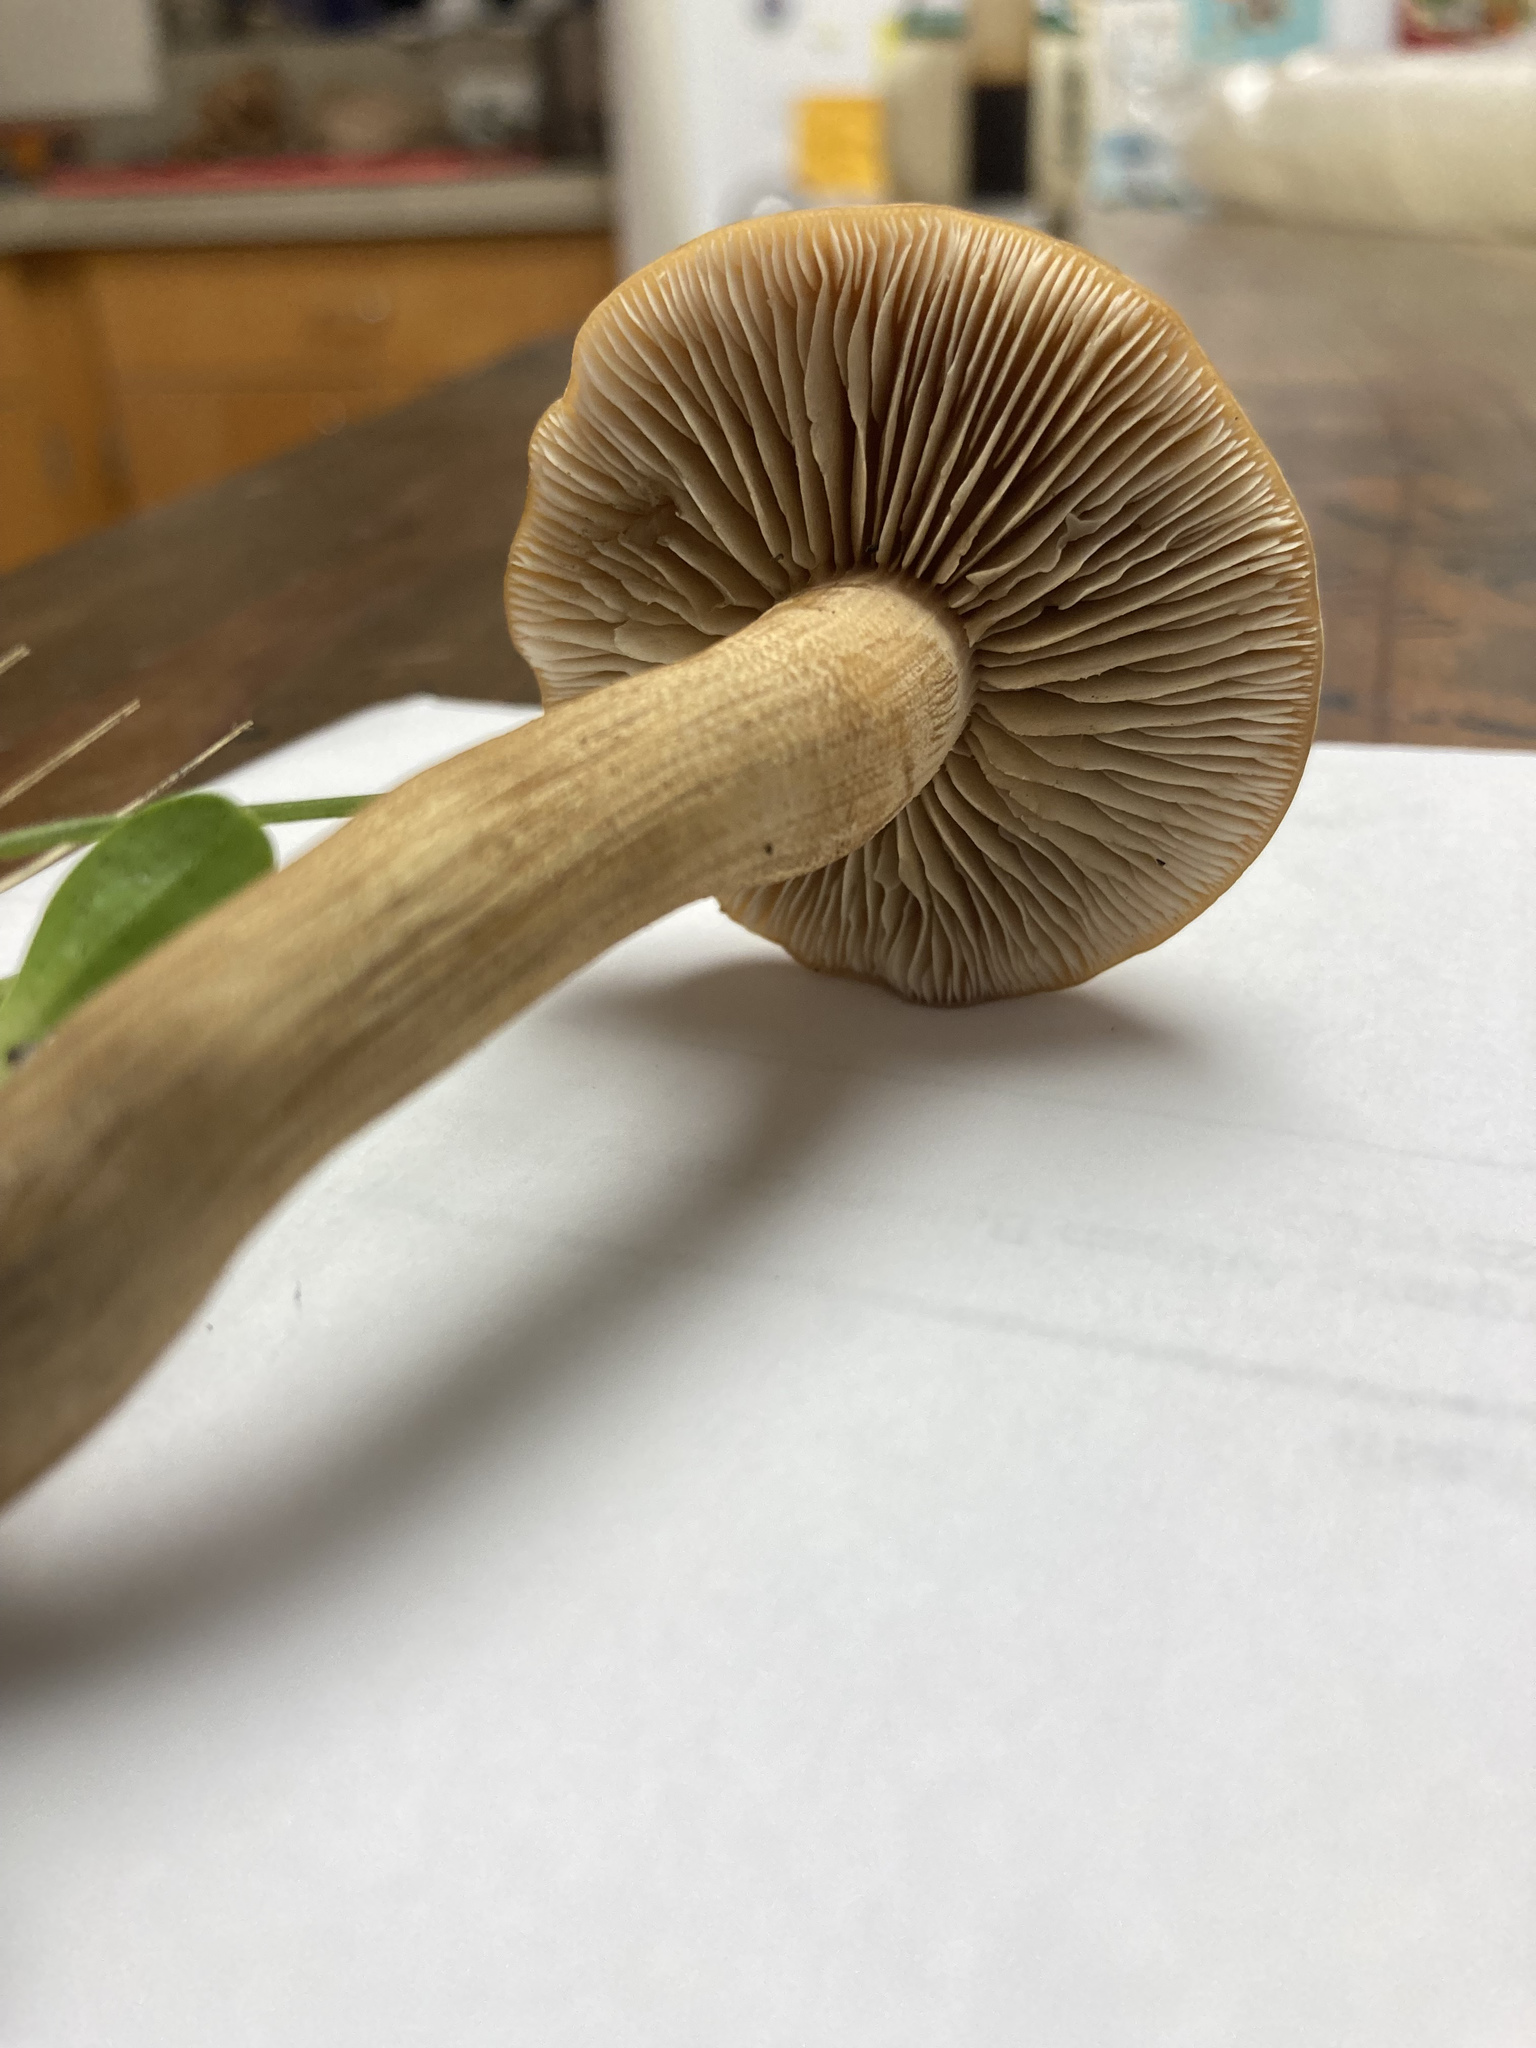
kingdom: Fungi
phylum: Basidiomycota
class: Agaricomycetes
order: Agaricales
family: Strophariaceae
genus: Agrocybe
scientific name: Agrocybe putaminum
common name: Mulch fieldcap
